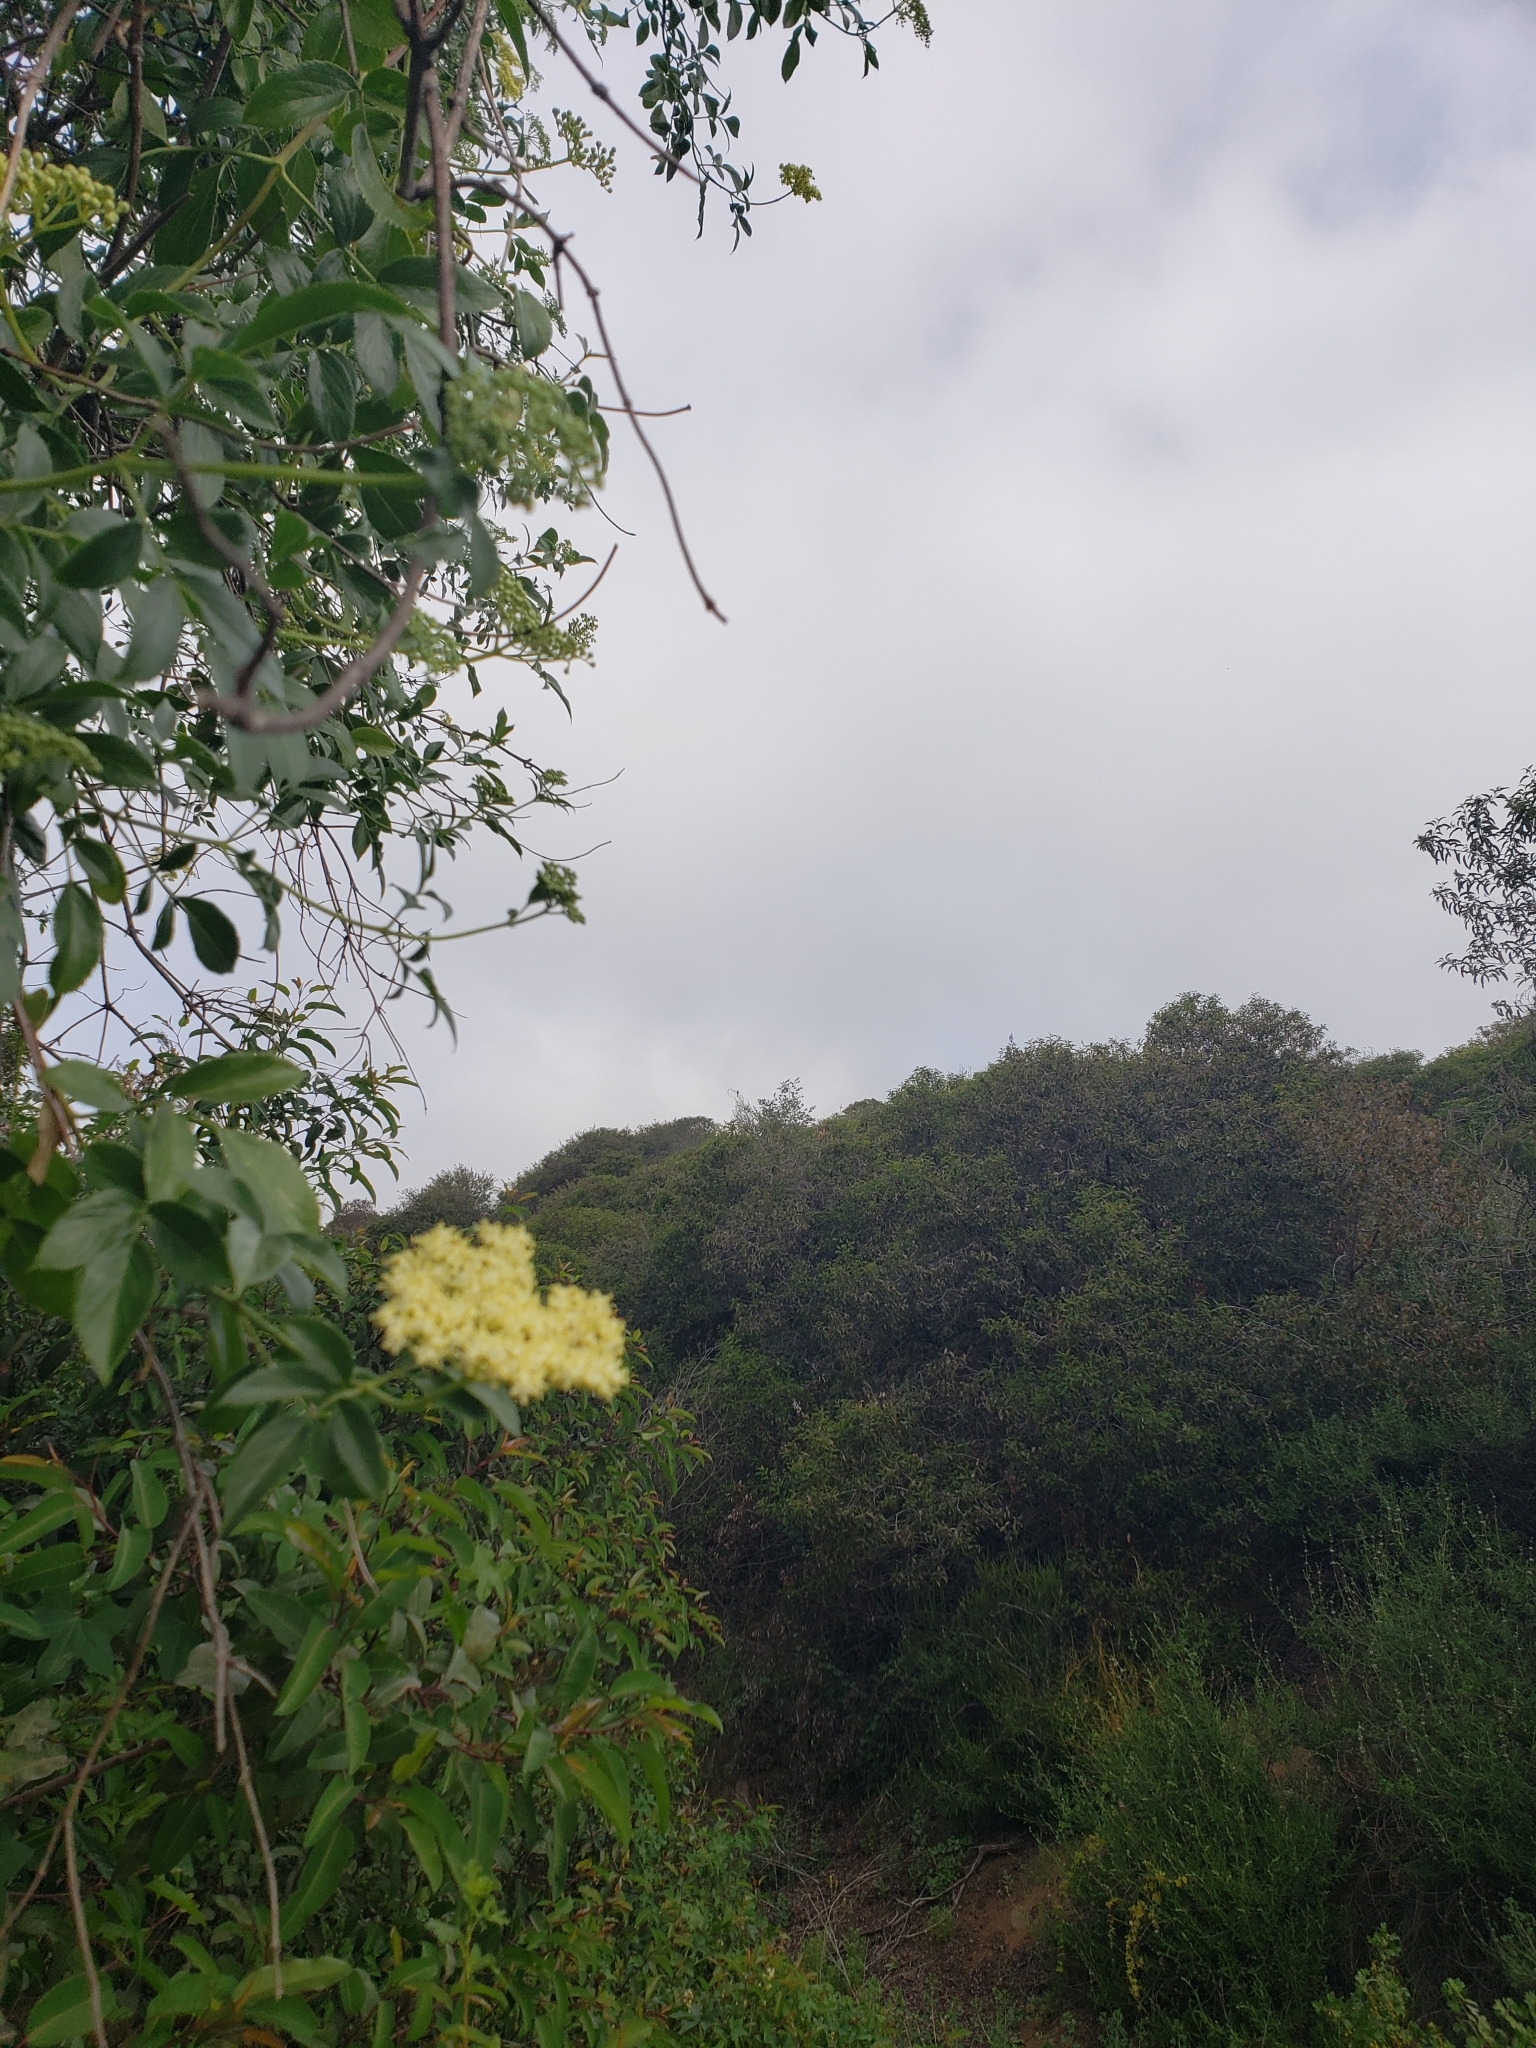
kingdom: Plantae
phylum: Tracheophyta
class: Magnoliopsida
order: Dipsacales
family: Viburnaceae
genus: Sambucus
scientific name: Sambucus cerulea
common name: Blue elder
